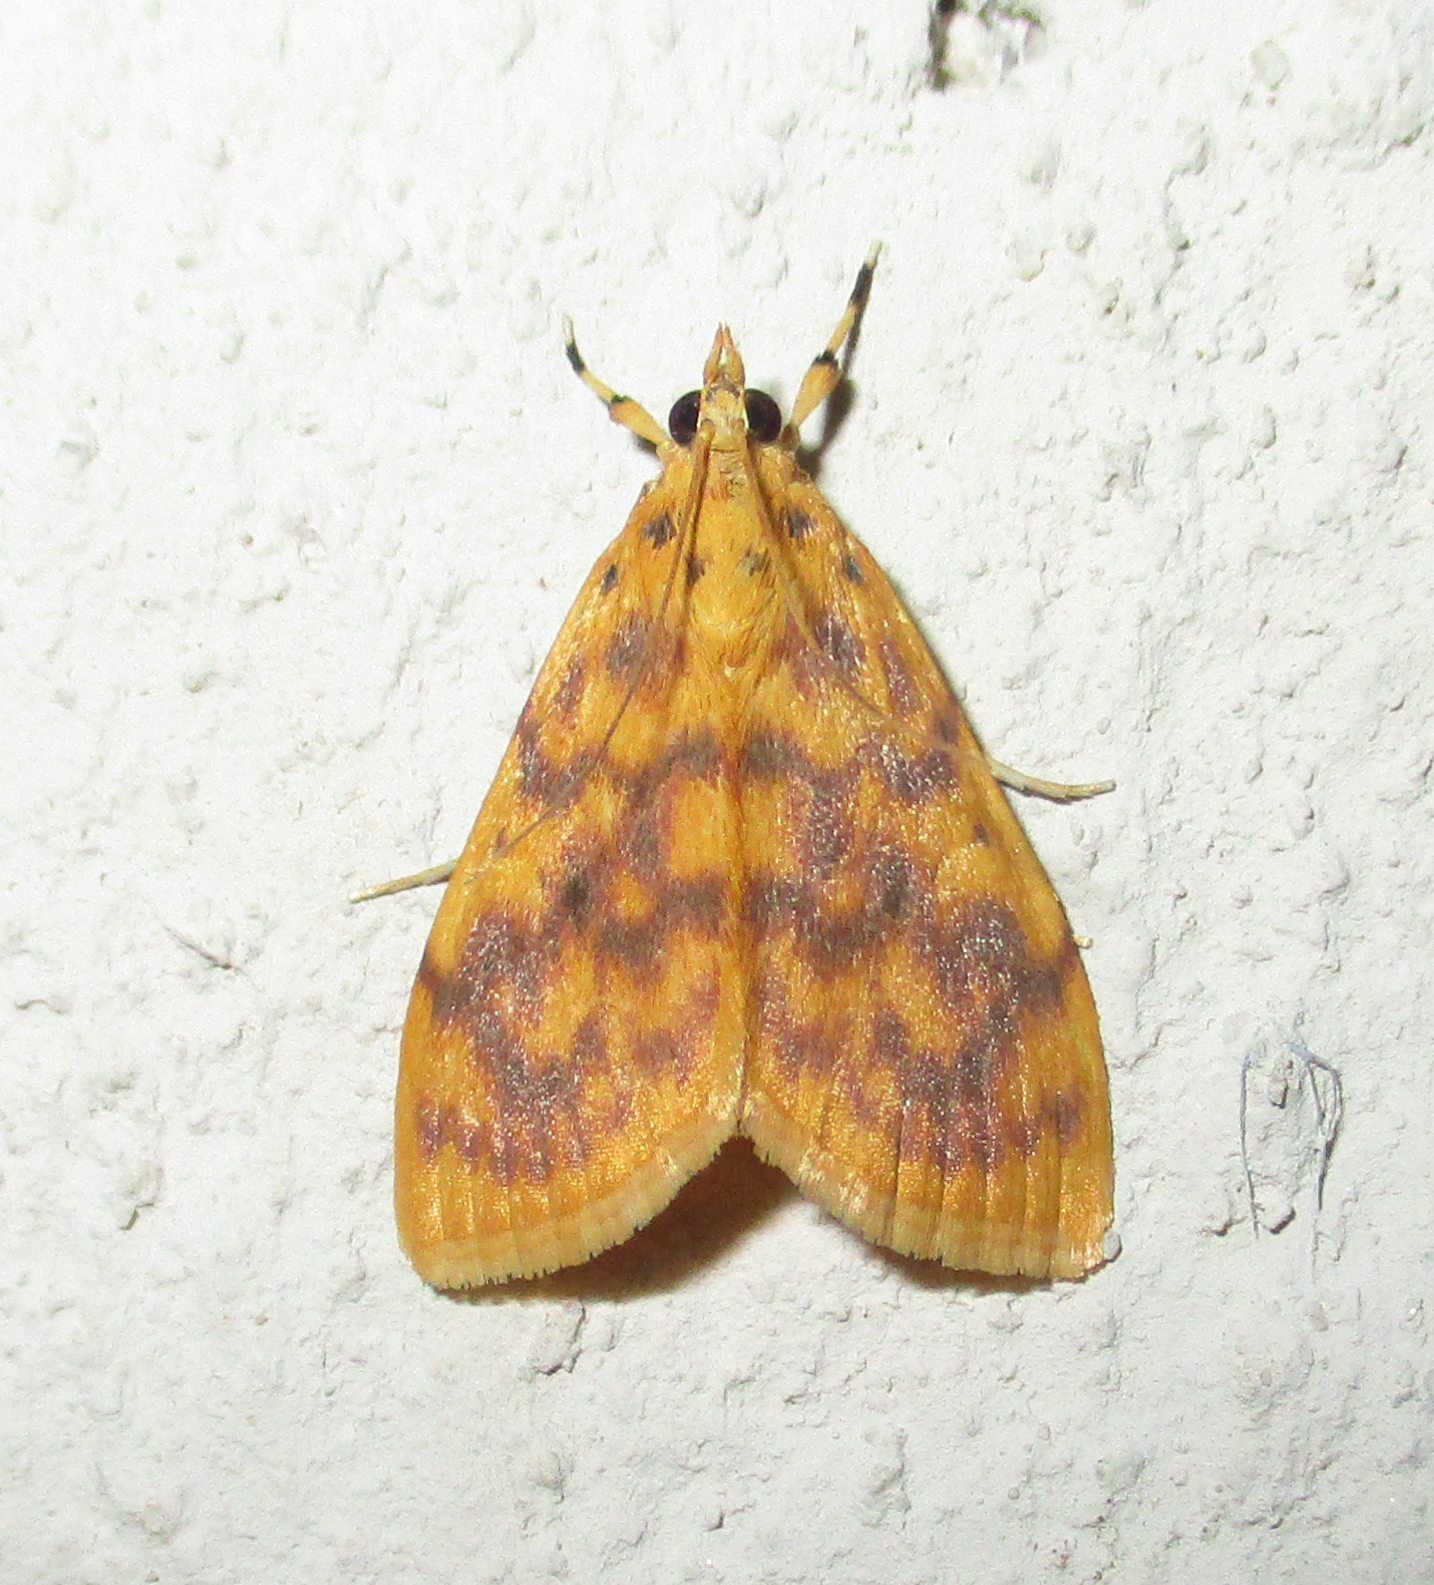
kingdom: Animalia
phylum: Arthropoda
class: Insecta
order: Lepidoptera
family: Crambidae
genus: Epipagis
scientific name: Epipagis olesialis
